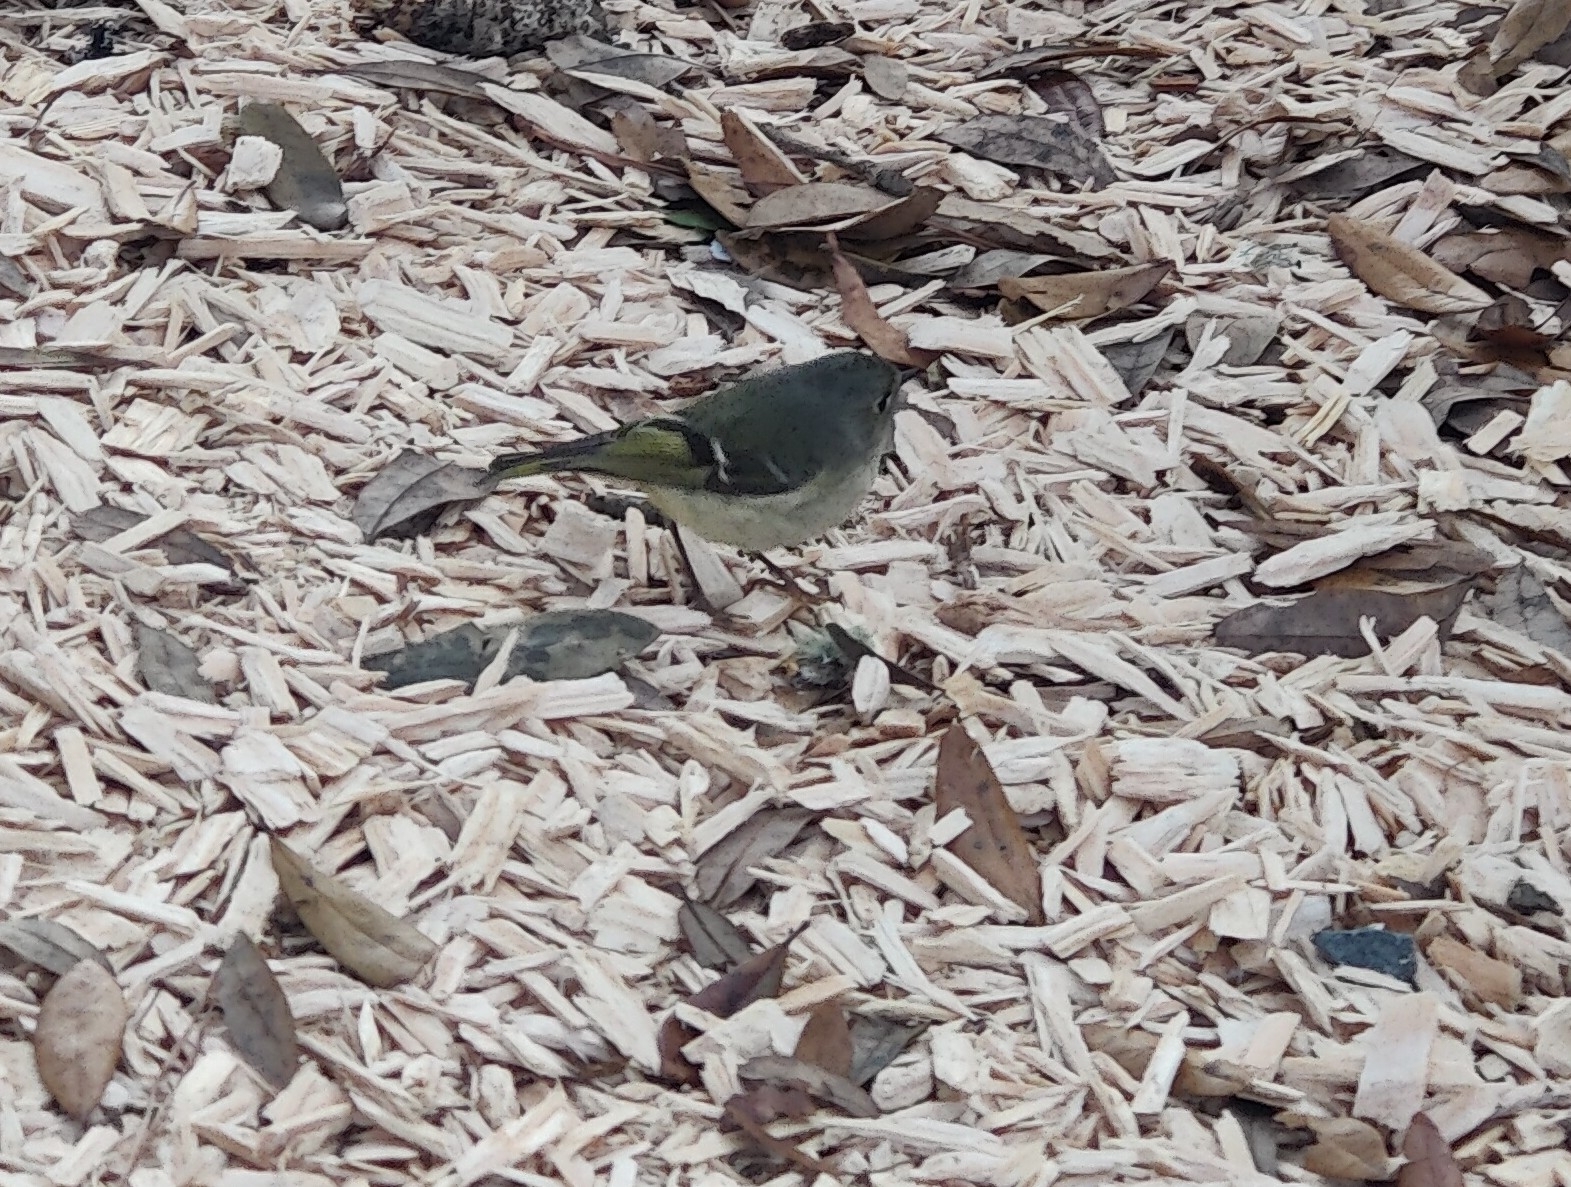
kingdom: Animalia
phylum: Chordata
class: Aves
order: Passeriformes
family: Regulidae
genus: Regulus
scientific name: Regulus calendula
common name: Ruby-crowned kinglet
